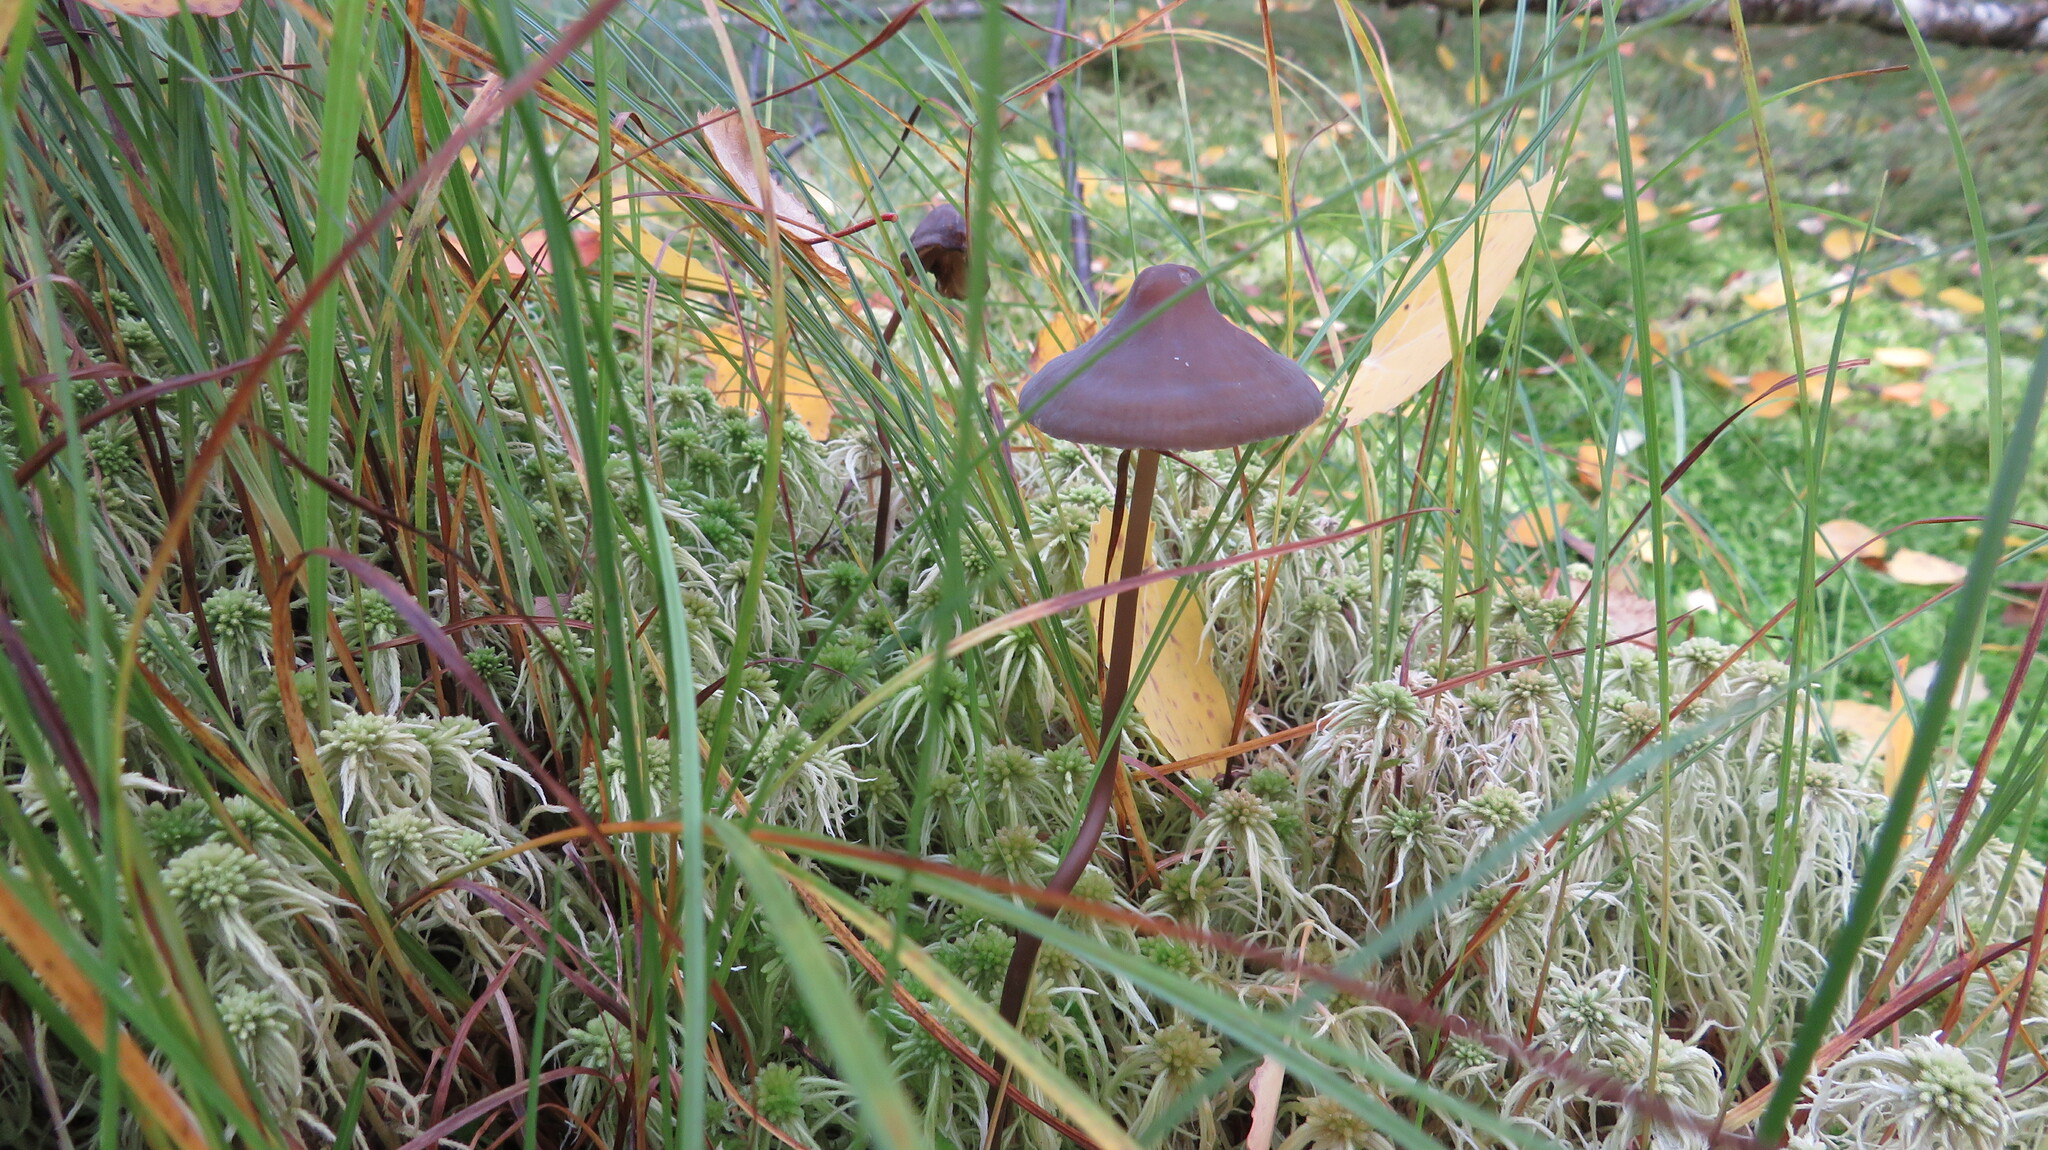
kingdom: Fungi
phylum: Basidiomycota
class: Agaricomycetes
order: Agaricales
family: Mycenaceae
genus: Mycena
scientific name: Mycena megaspora
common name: Rooting bonnet
